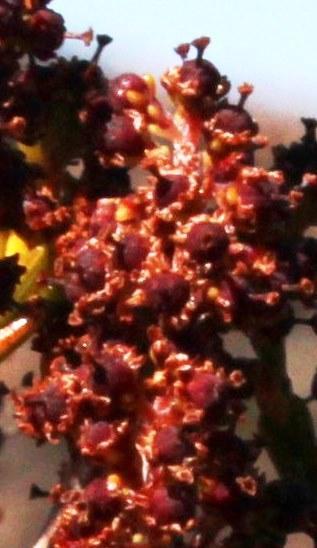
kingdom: Plantae
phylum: Tracheophyta
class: Magnoliopsida
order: Ericales
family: Ericaceae
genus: Erica
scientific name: Erica karooica
